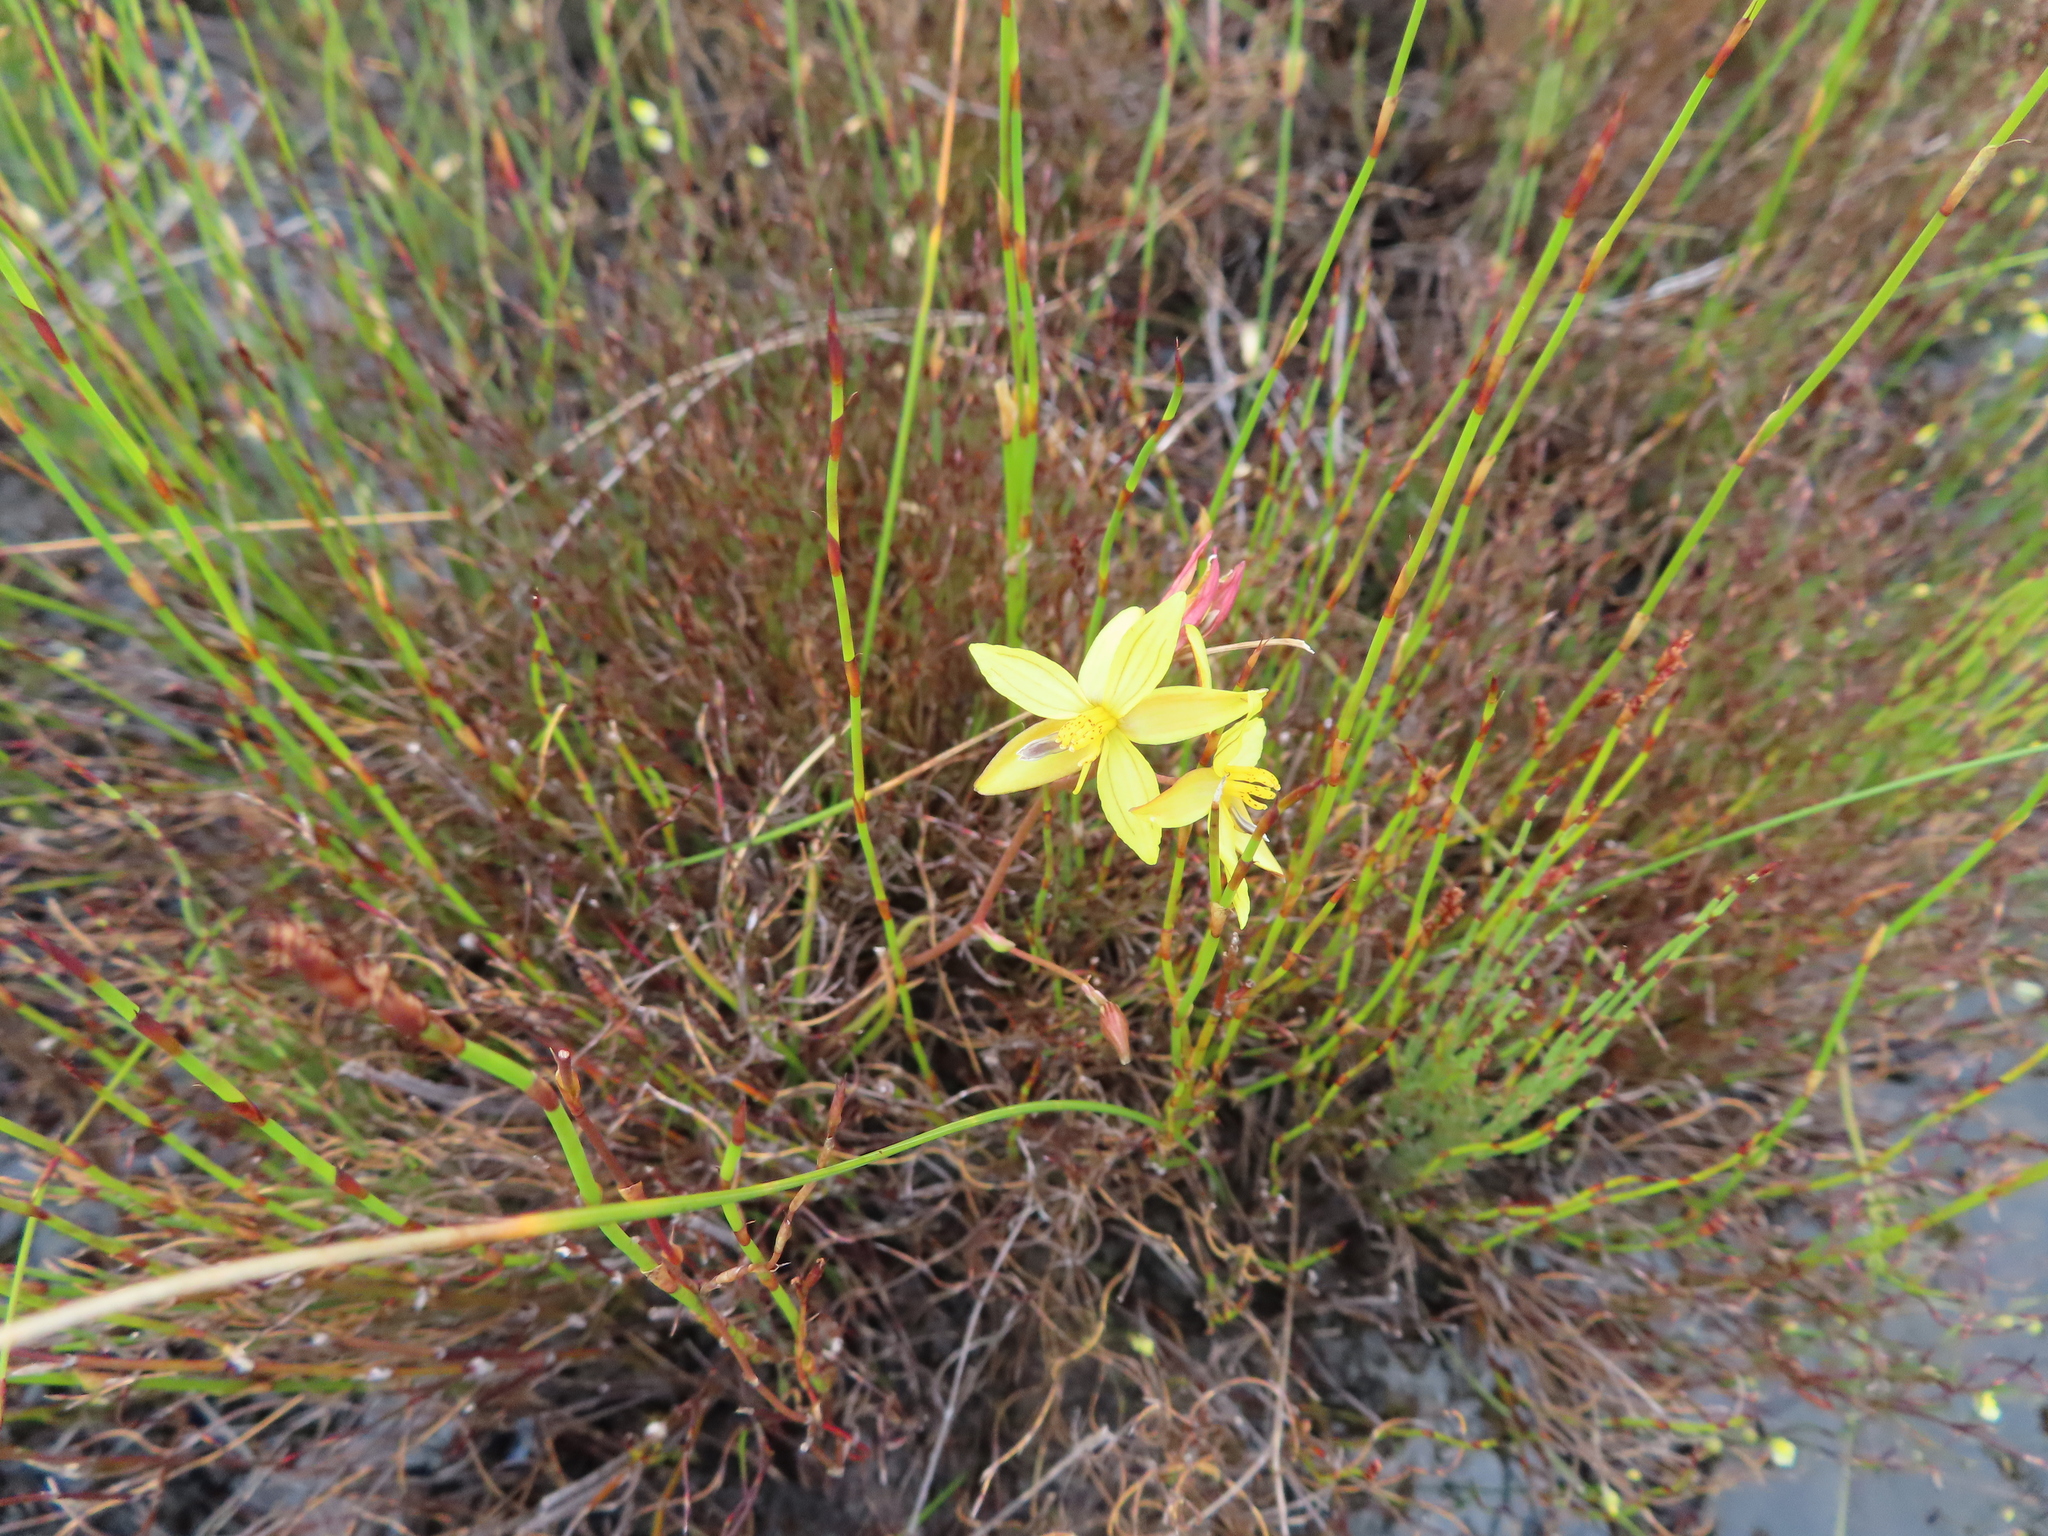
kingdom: Plantae
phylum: Tracheophyta
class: Liliopsida
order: Asparagales
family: Tecophilaeaceae
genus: Cyanella
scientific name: Cyanella lutea
